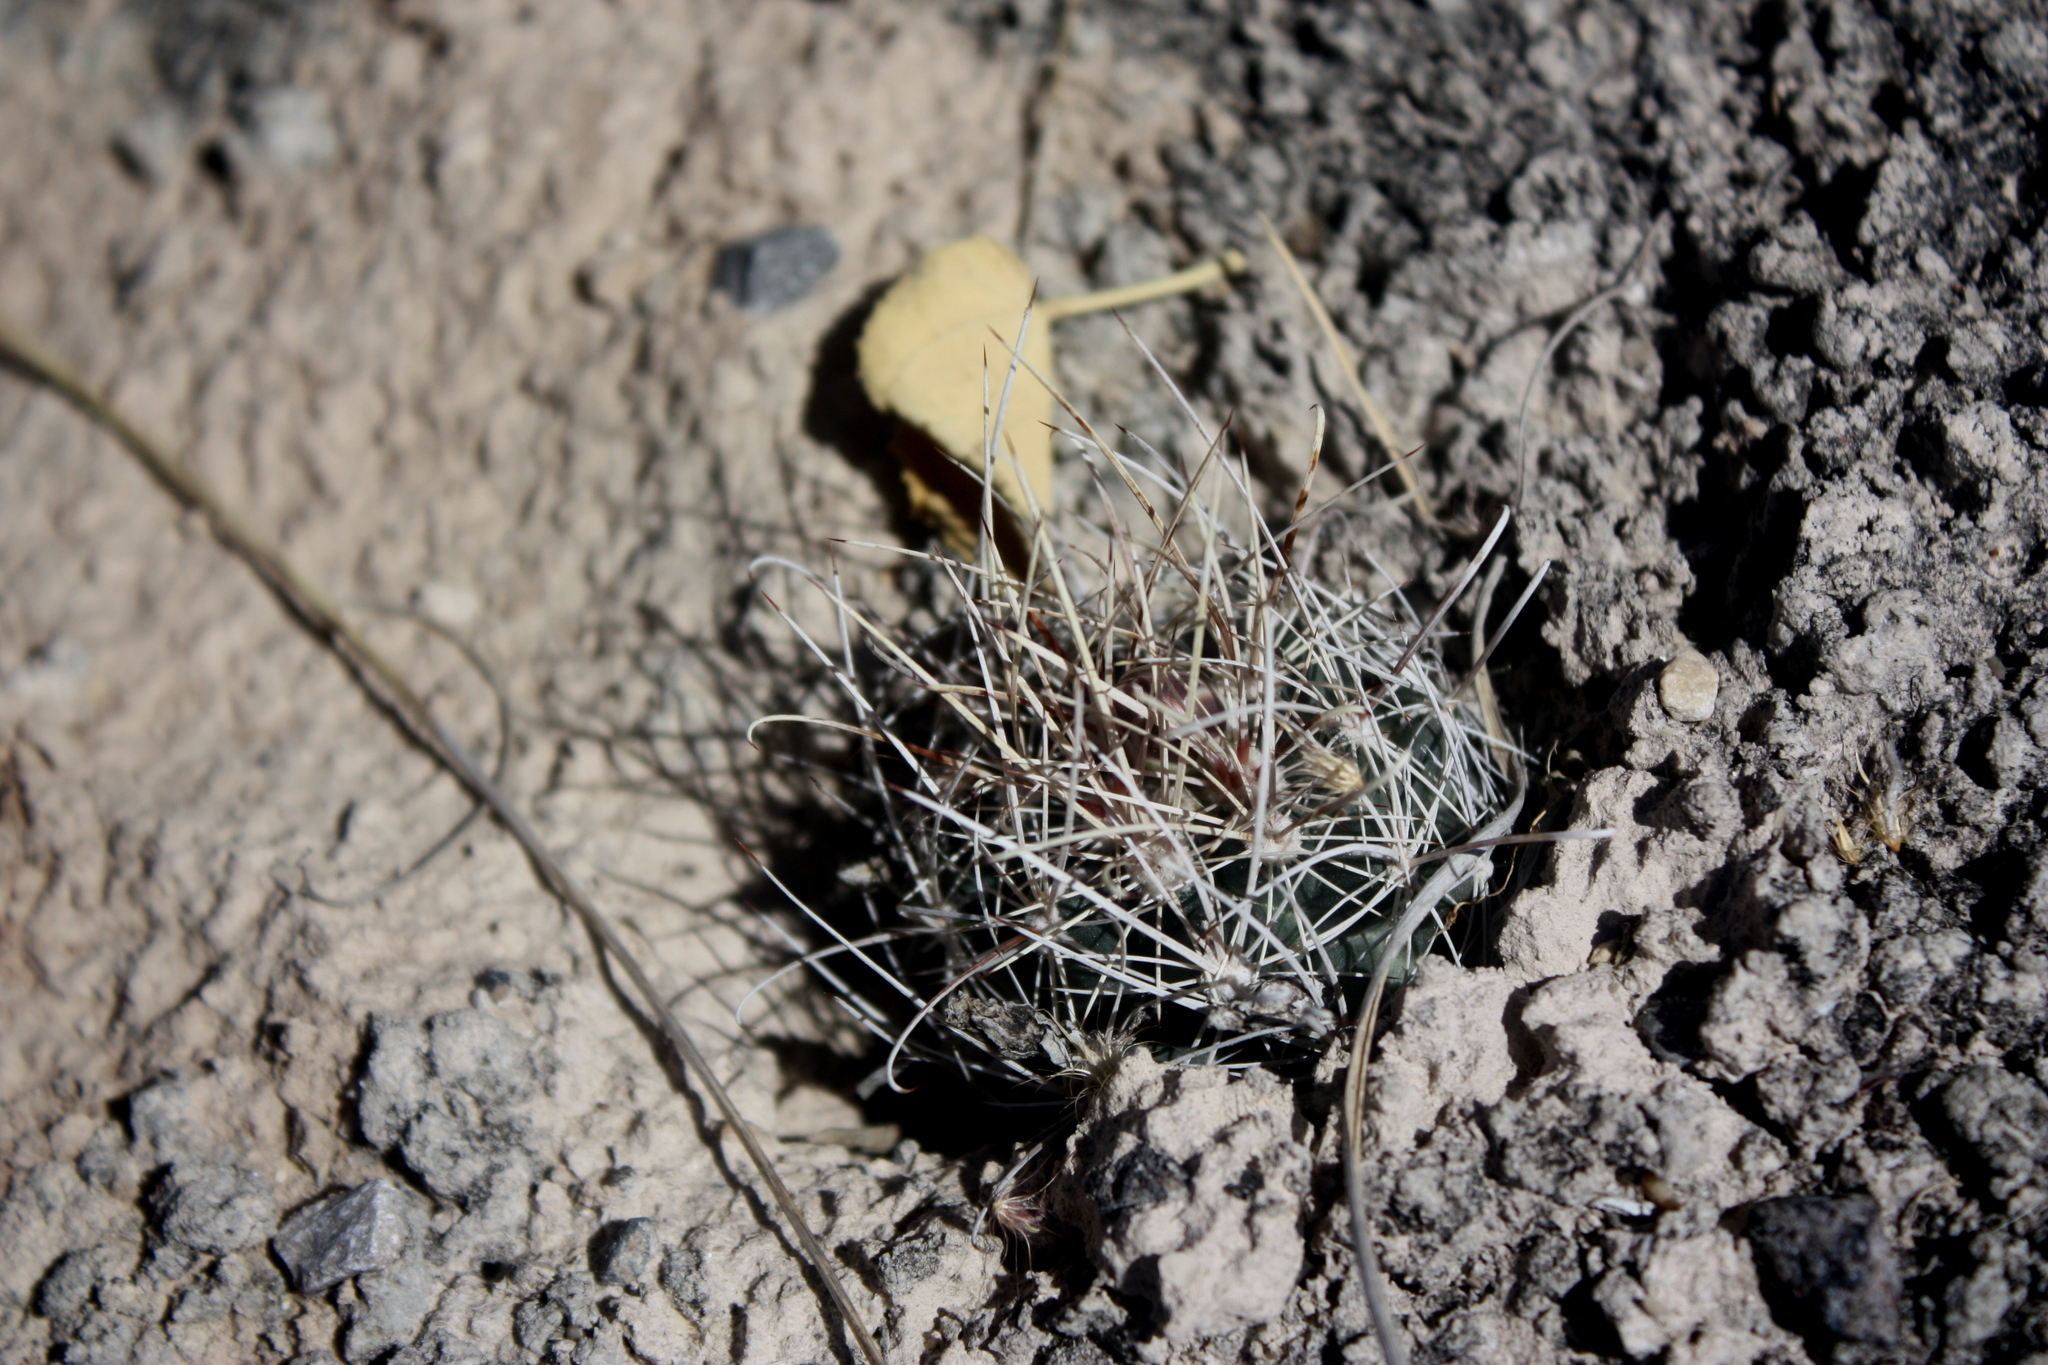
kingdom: Plantae
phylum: Tracheophyta
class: Magnoliopsida
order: Caryophyllales
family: Cactaceae
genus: Sclerocactus
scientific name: Sclerocactus pinkavanus
